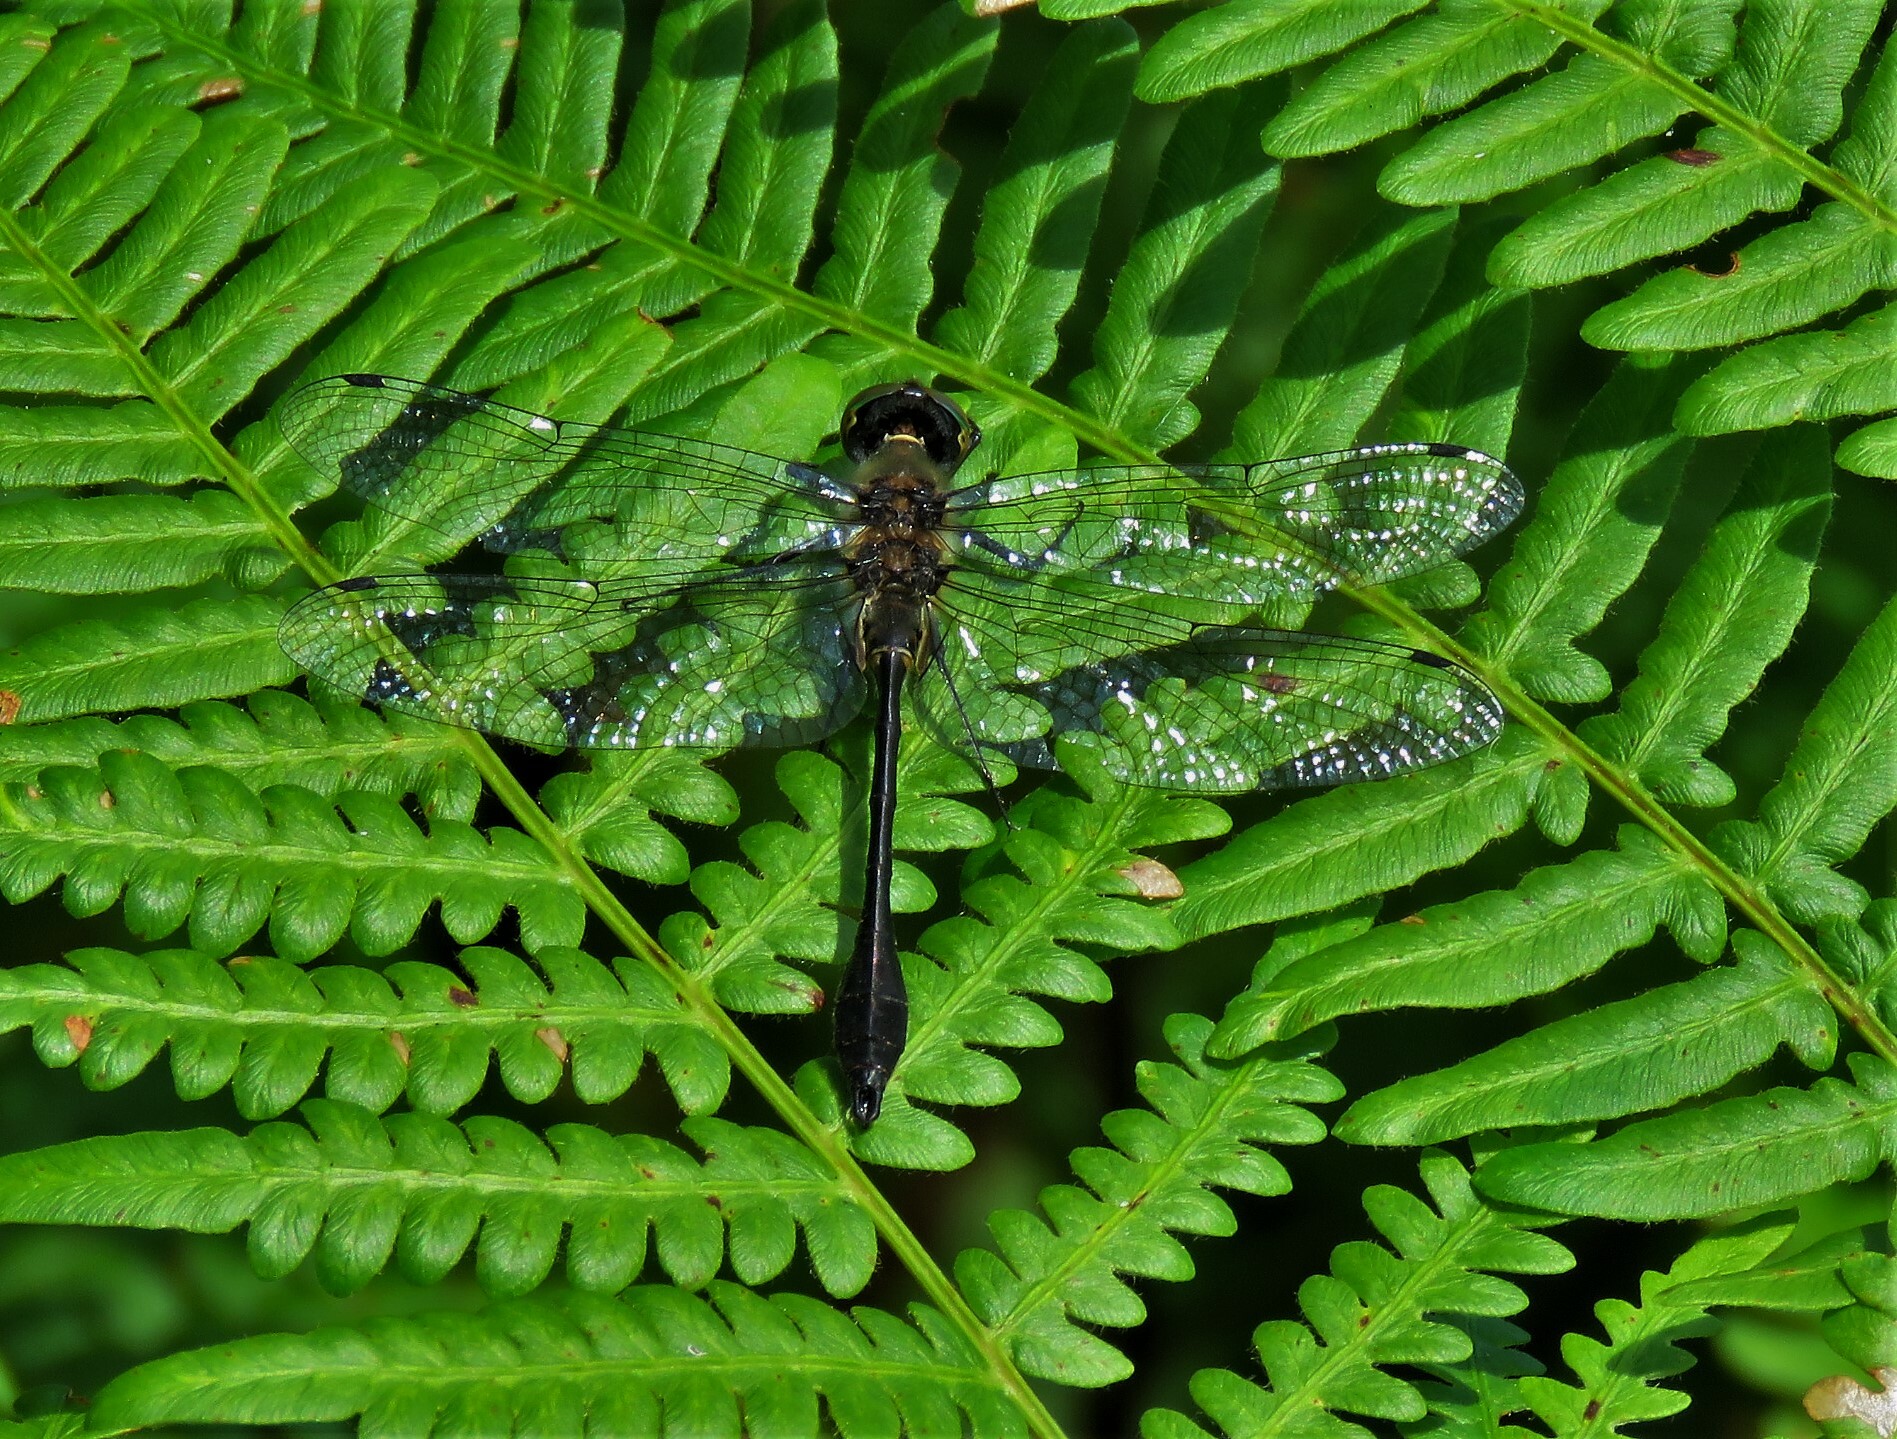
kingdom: Animalia
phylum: Arthropoda
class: Insecta
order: Odonata
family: Corduliidae
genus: Dorocordulia
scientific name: Dorocordulia libera
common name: Racket-tailed emerald
